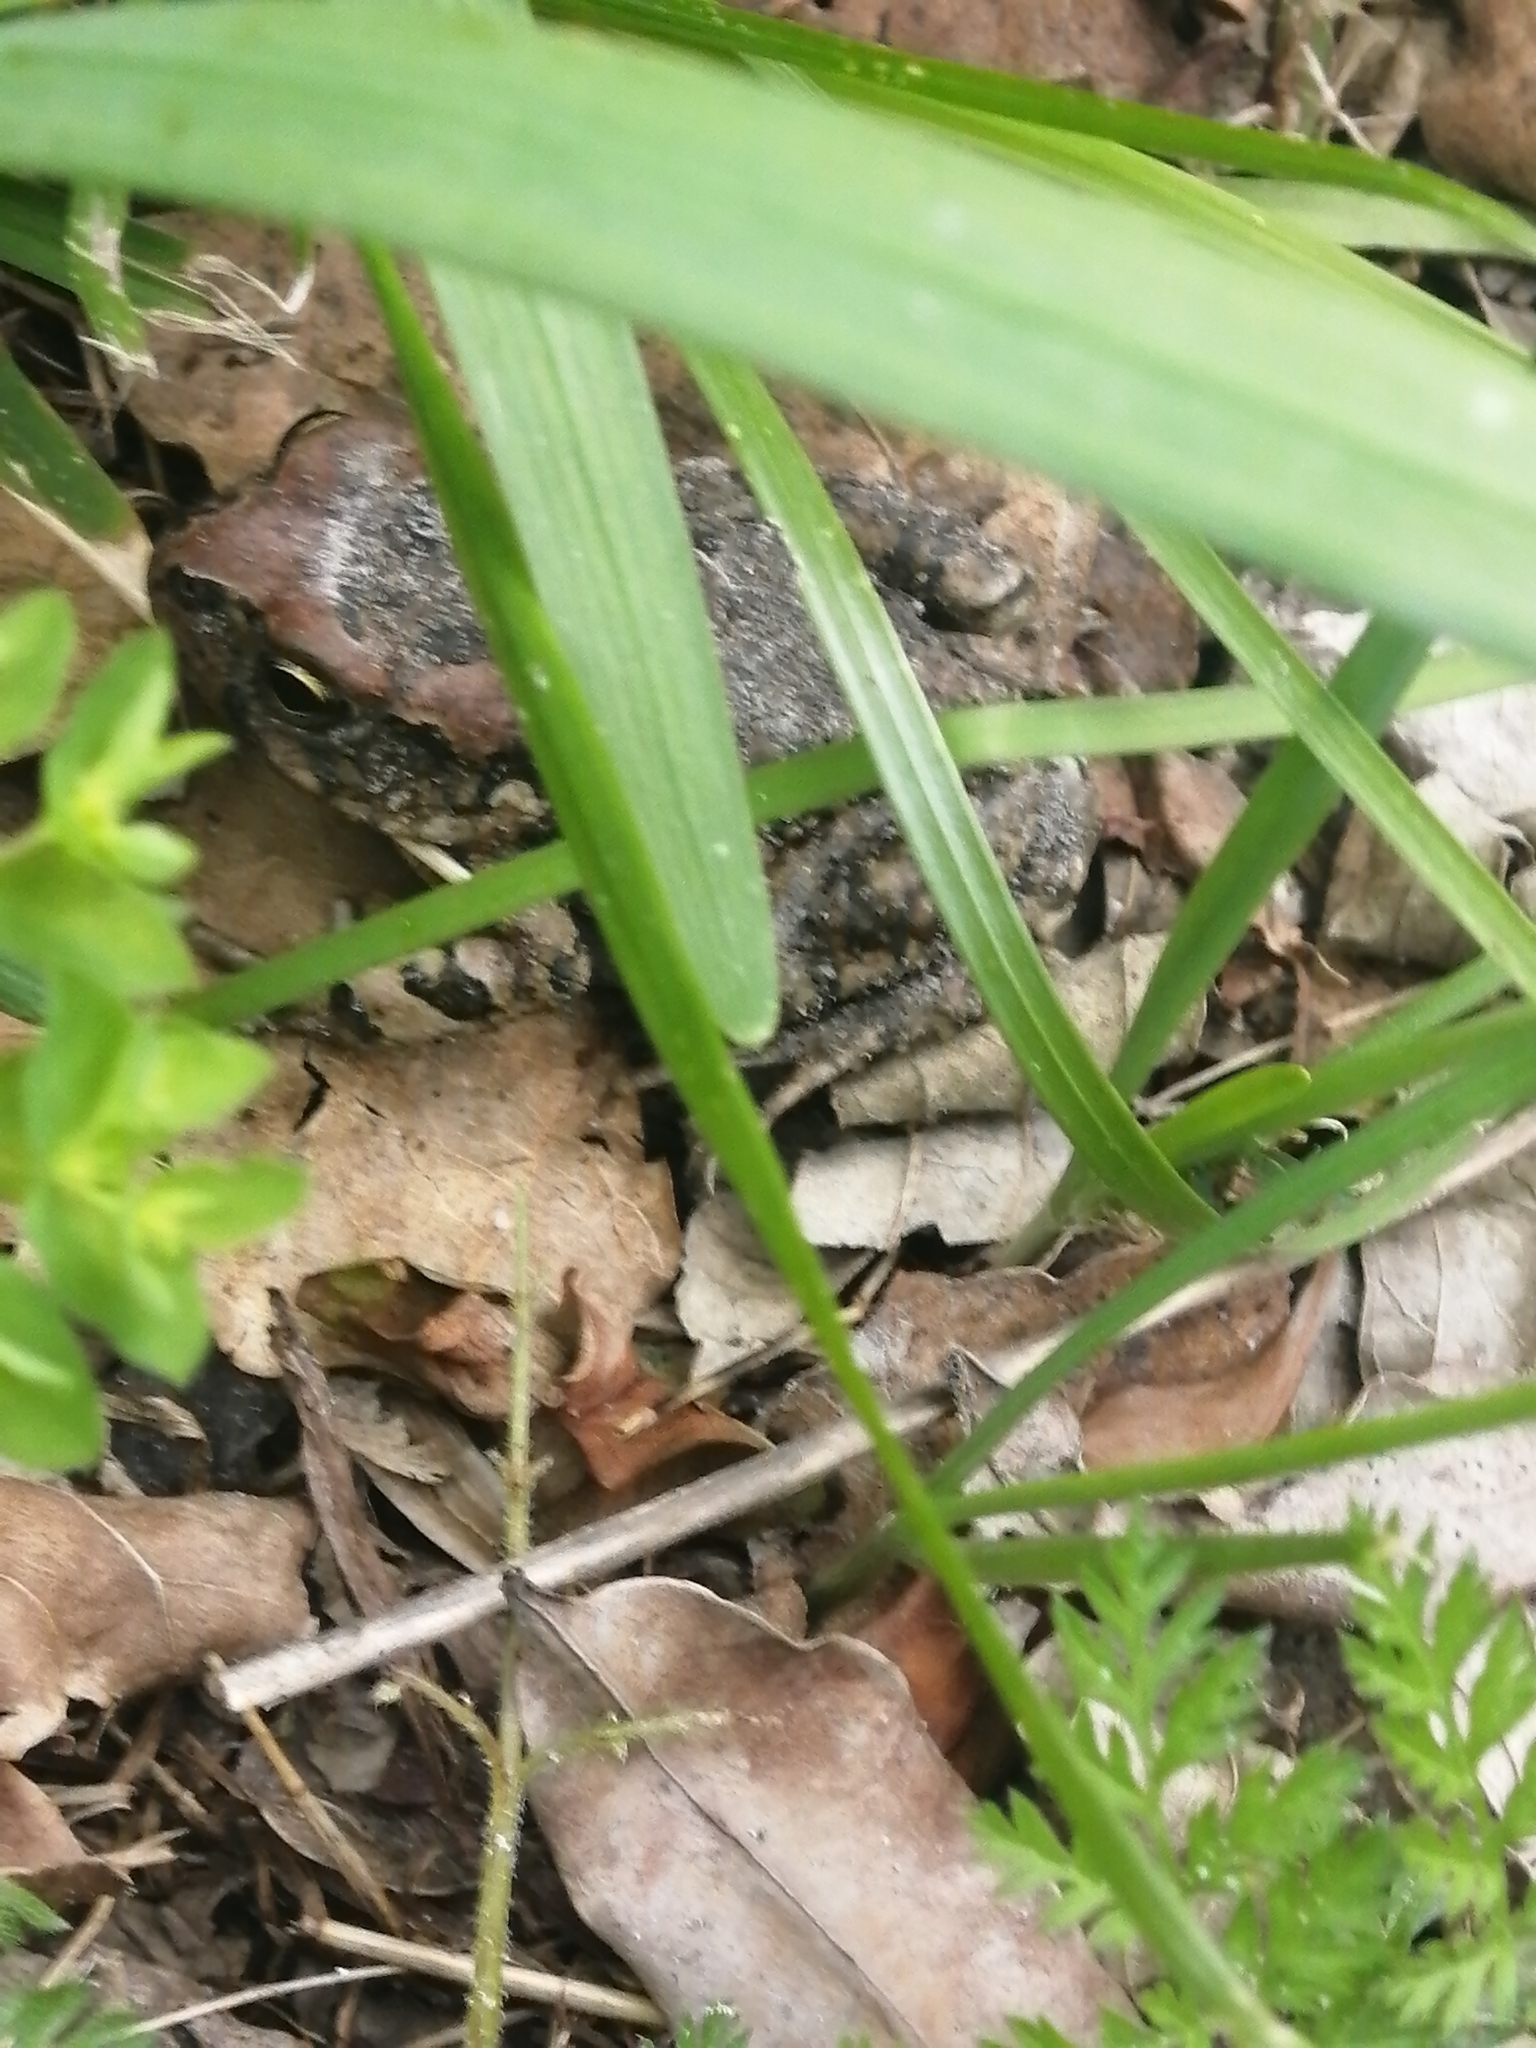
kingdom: Animalia
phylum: Chordata
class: Amphibia
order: Anura
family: Bufonidae
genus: Sclerophrys
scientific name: Sclerophrys capensis
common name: Ranger’s toad
